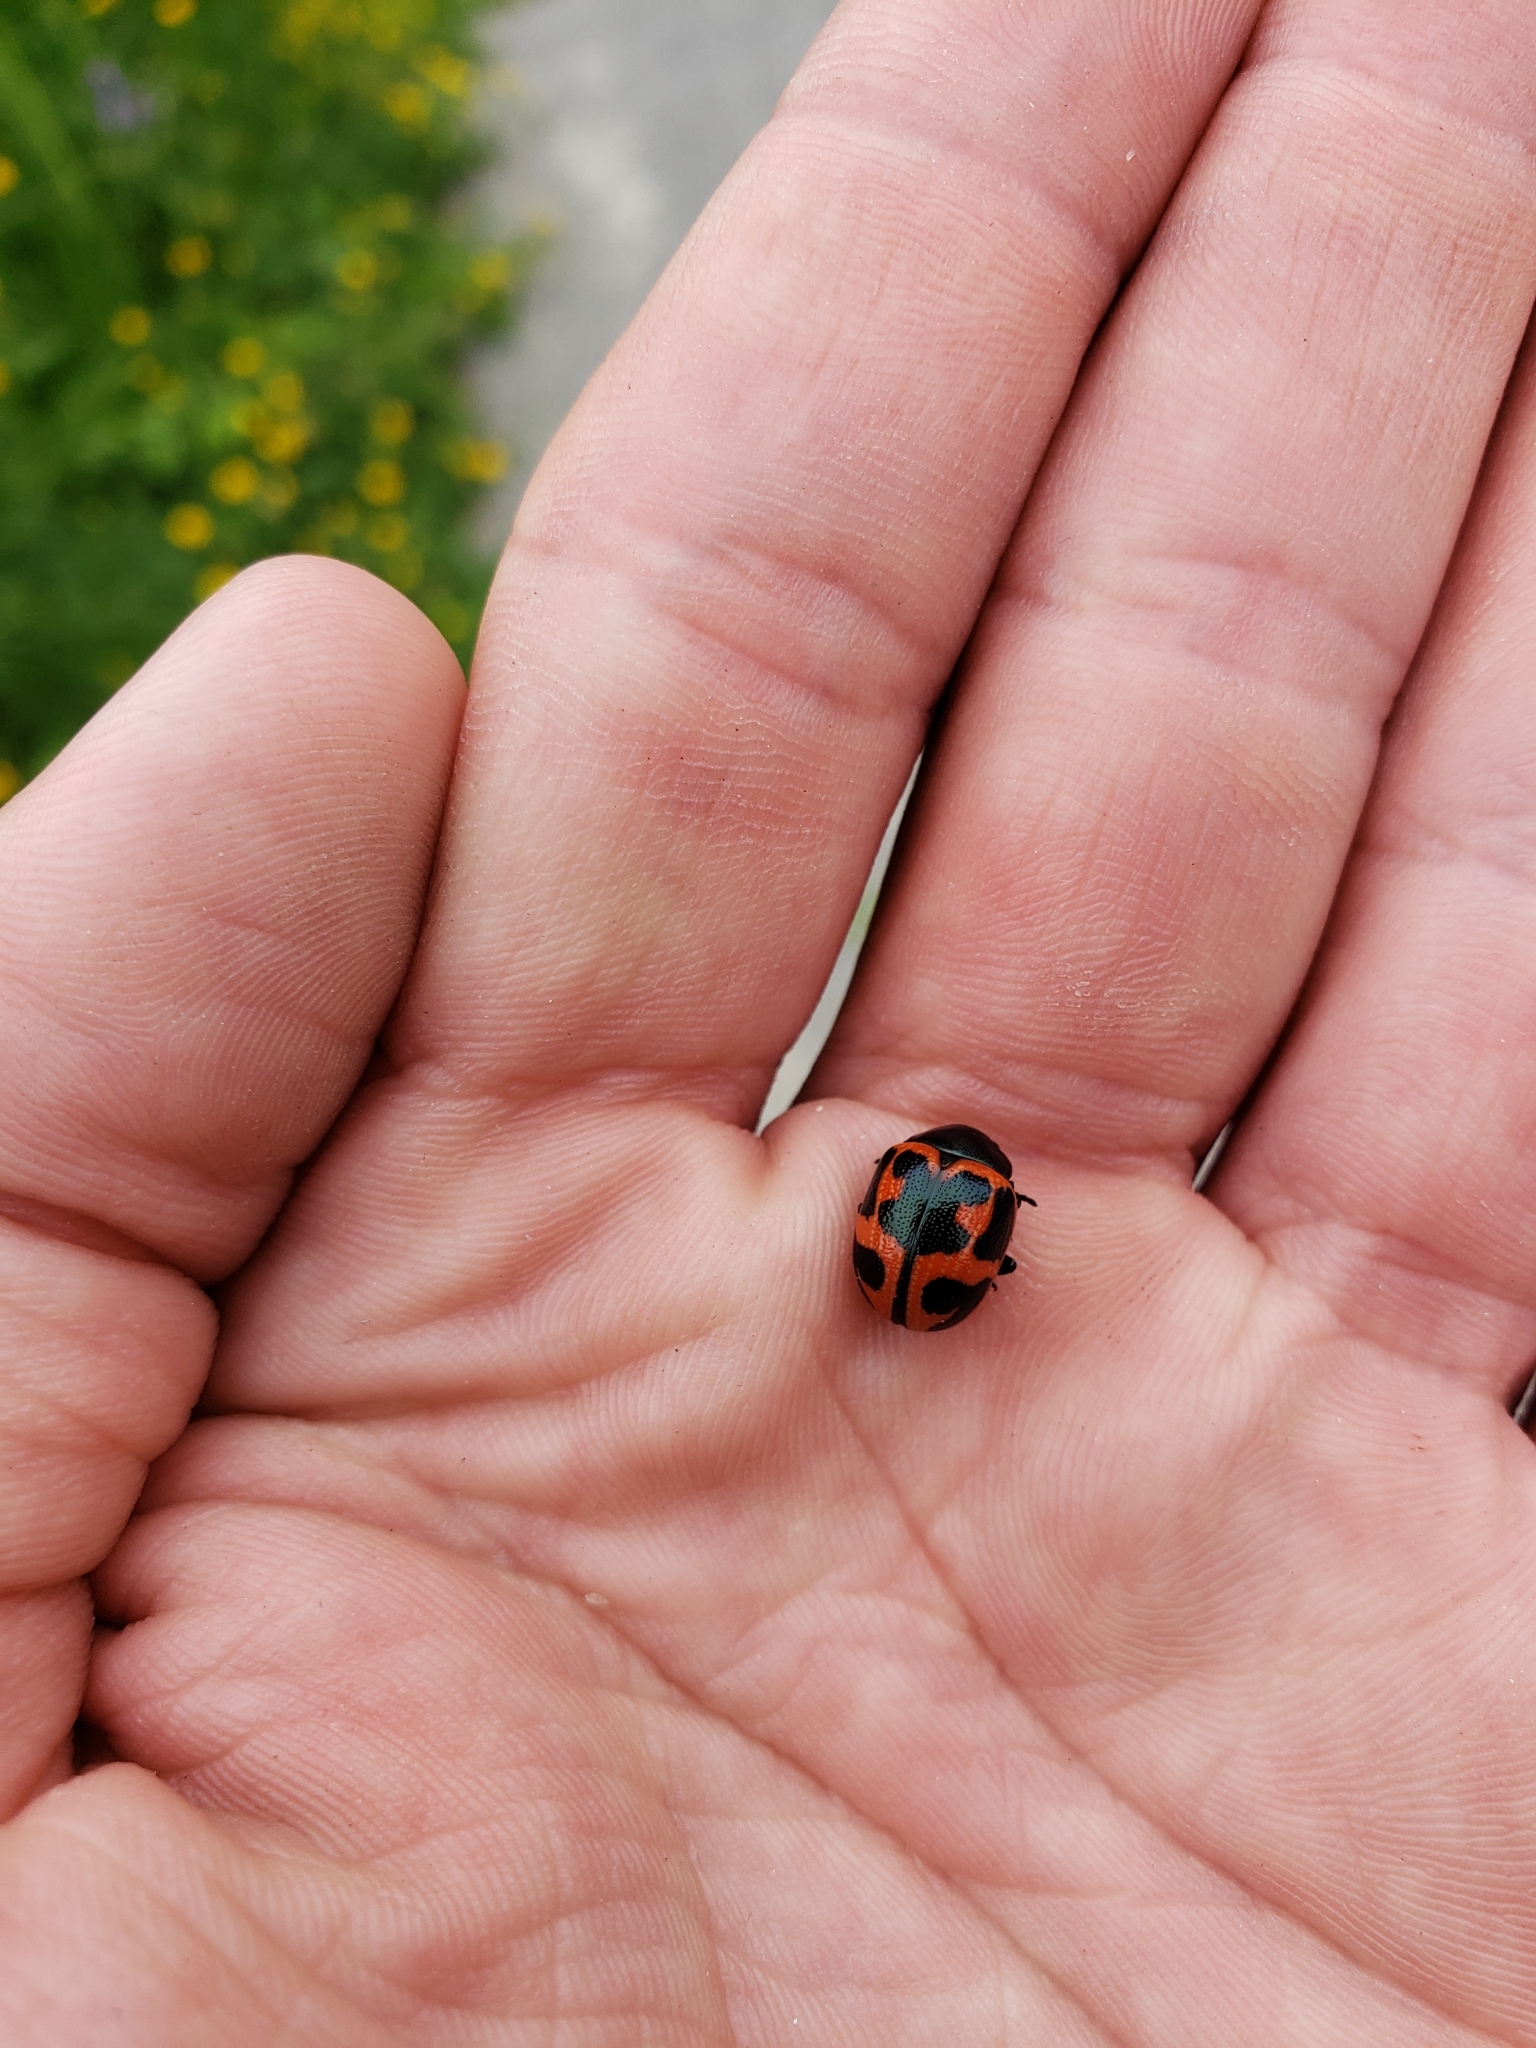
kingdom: Animalia
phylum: Arthropoda
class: Insecta
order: Coleoptera
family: Chrysomelidae
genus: Labidomera
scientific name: Labidomera clivicollis
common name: Swamp milkweed leaf beetle
